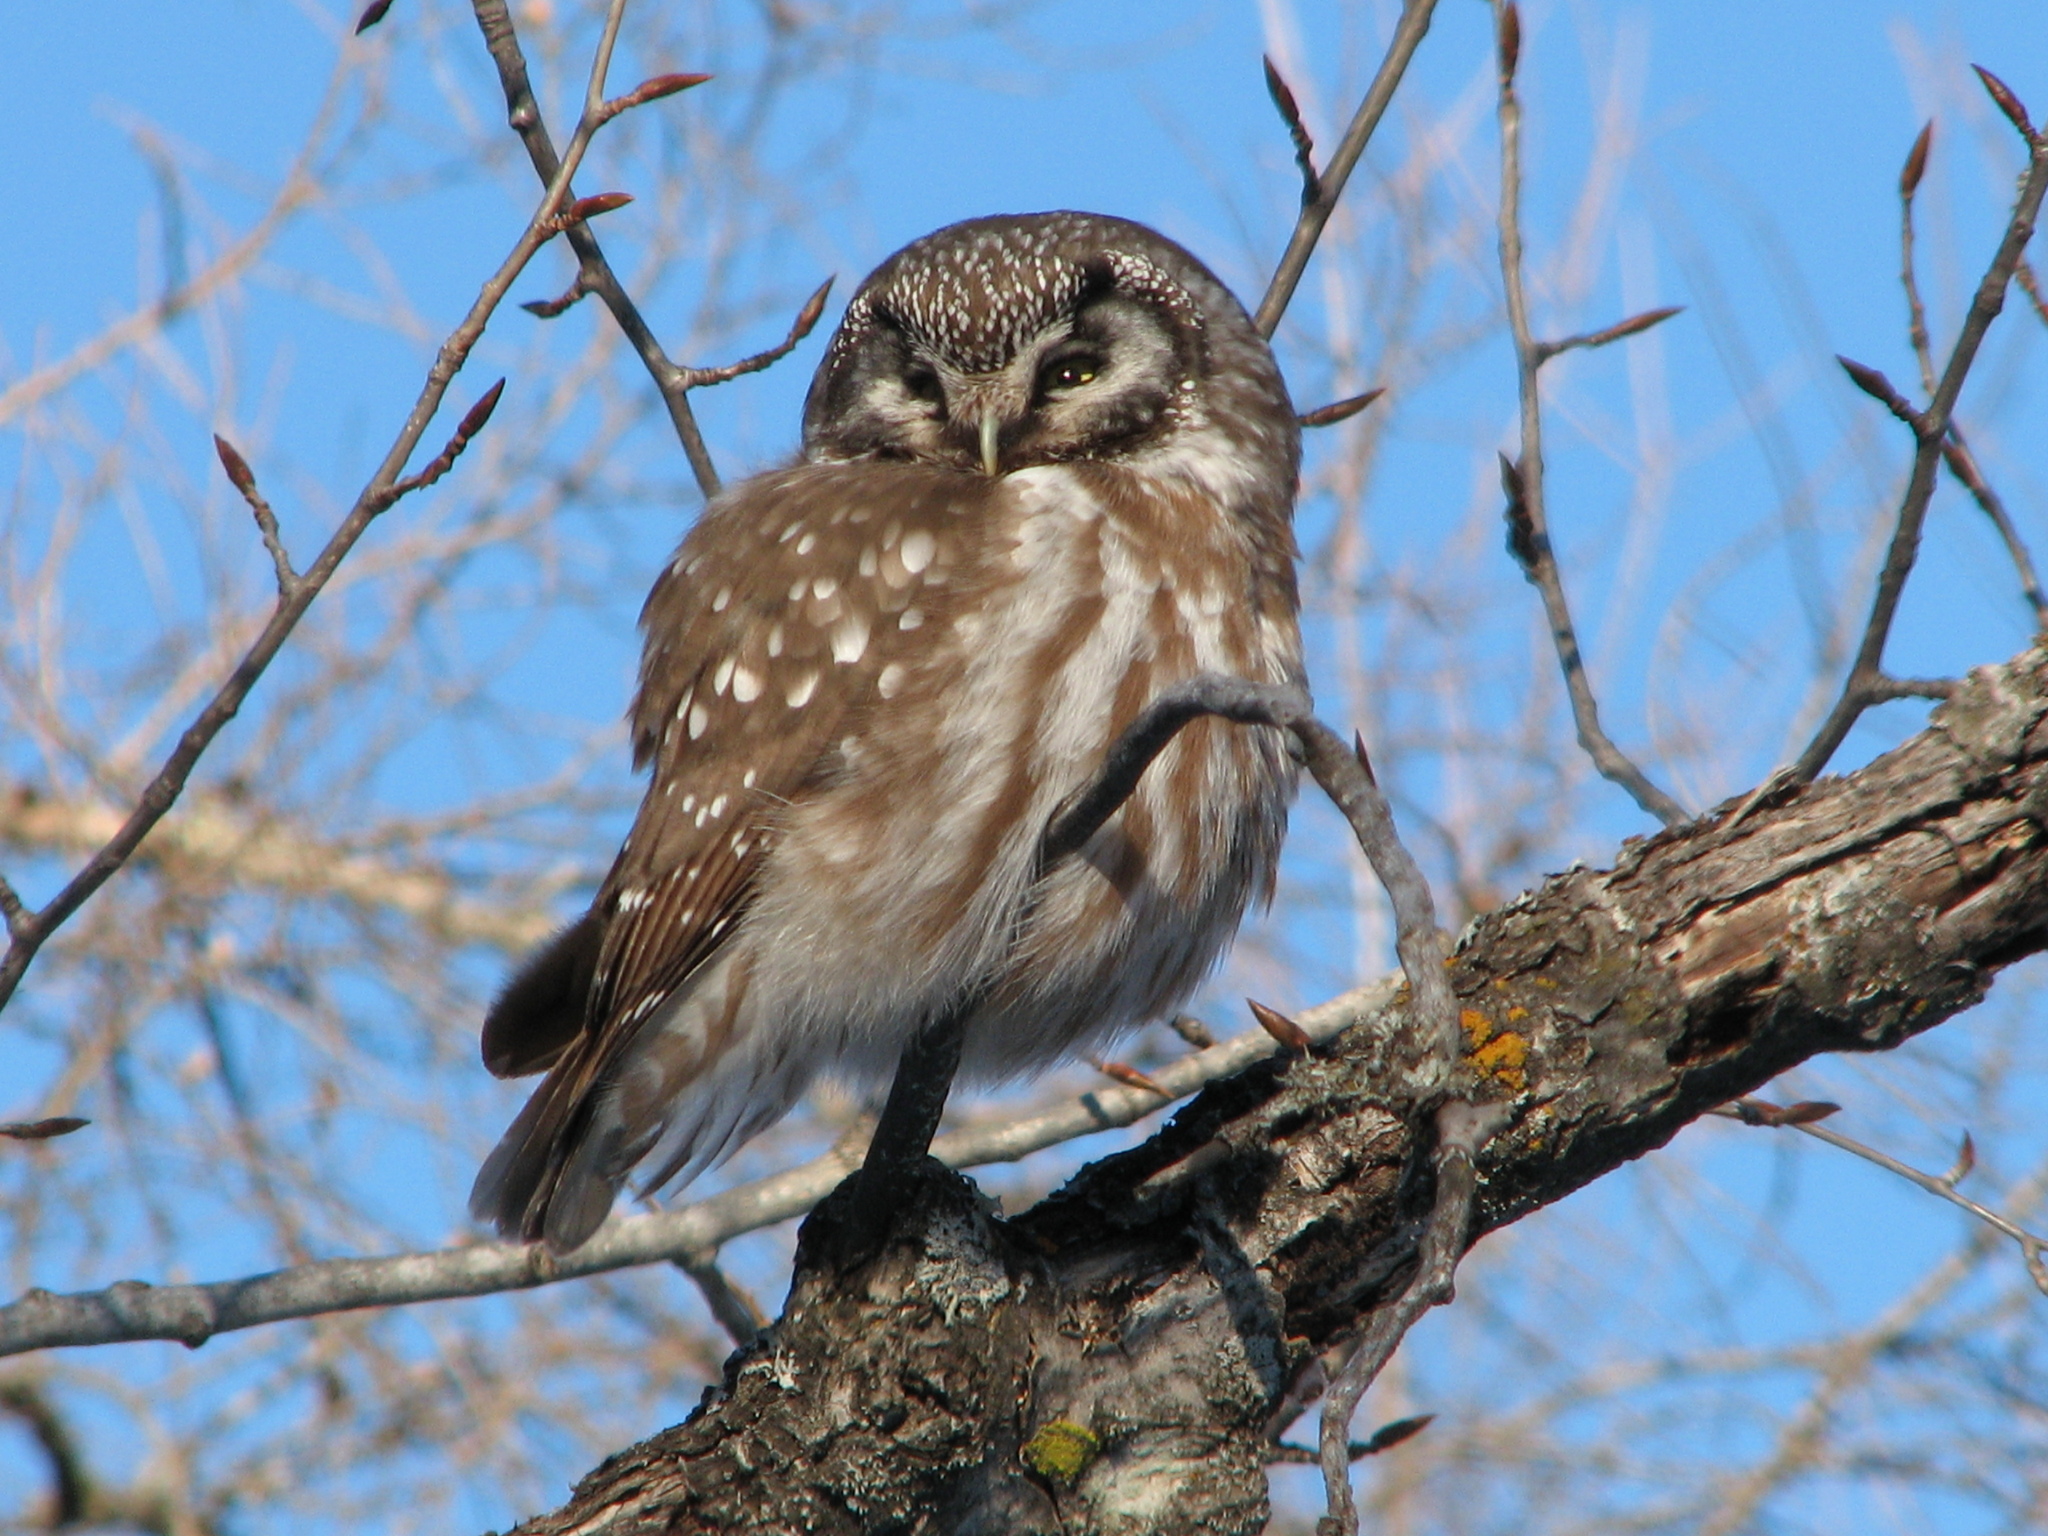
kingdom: Animalia
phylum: Chordata
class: Aves
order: Strigiformes
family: Strigidae
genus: Aegolius
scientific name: Aegolius funereus
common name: Boreal owl
